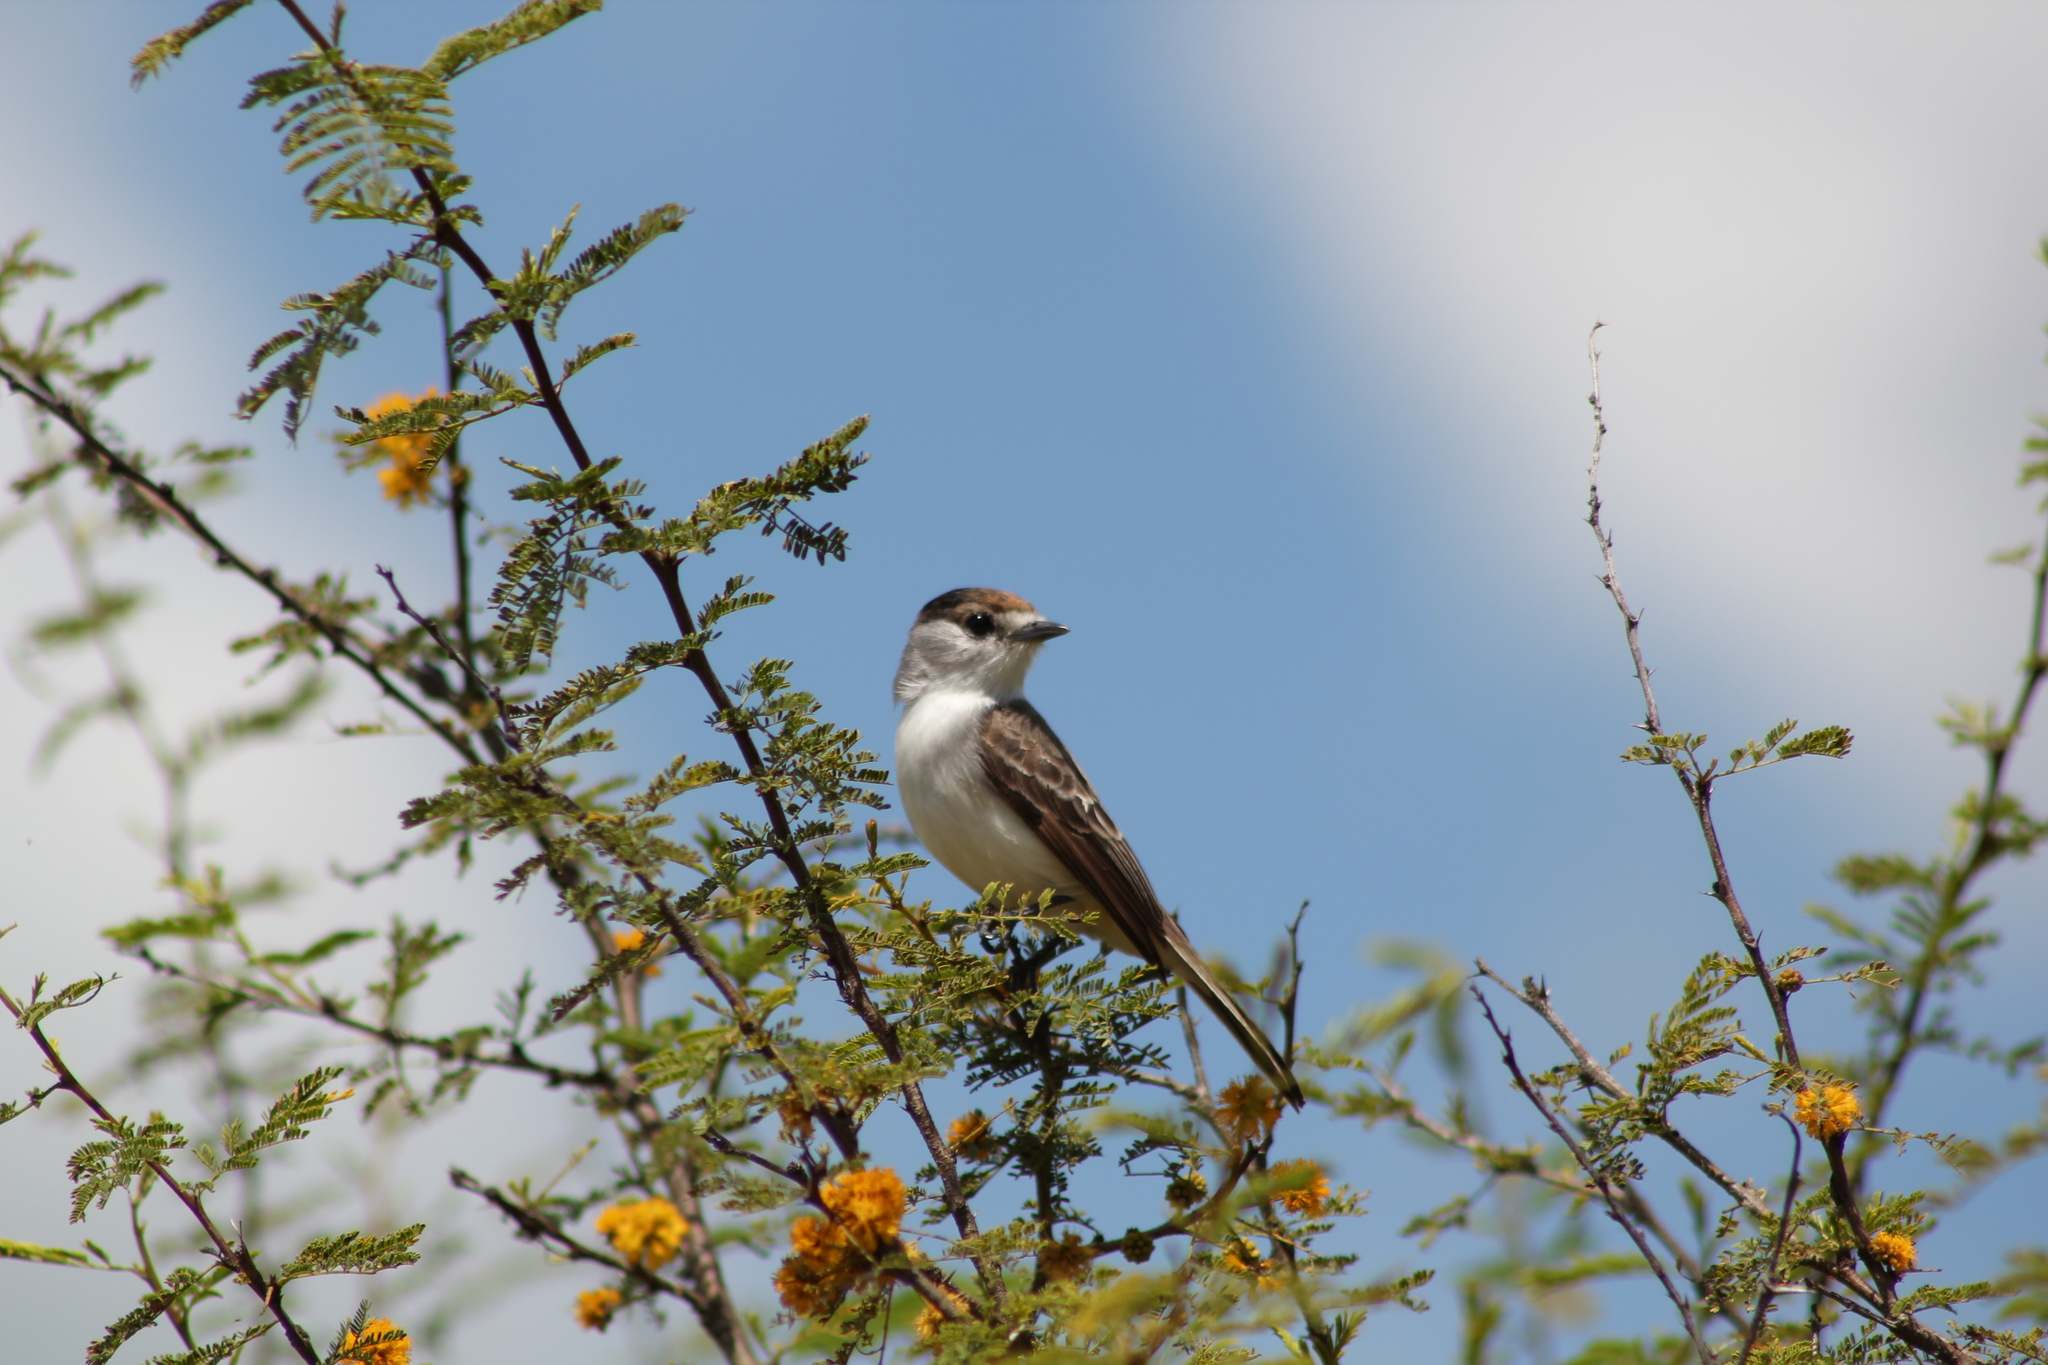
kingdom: Animalia
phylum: Chordata
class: Aves
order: Passeriformes
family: Cotingidae
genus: Xenopsaris
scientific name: Xenopsaris albinucha
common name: White-naped xenopsaris
